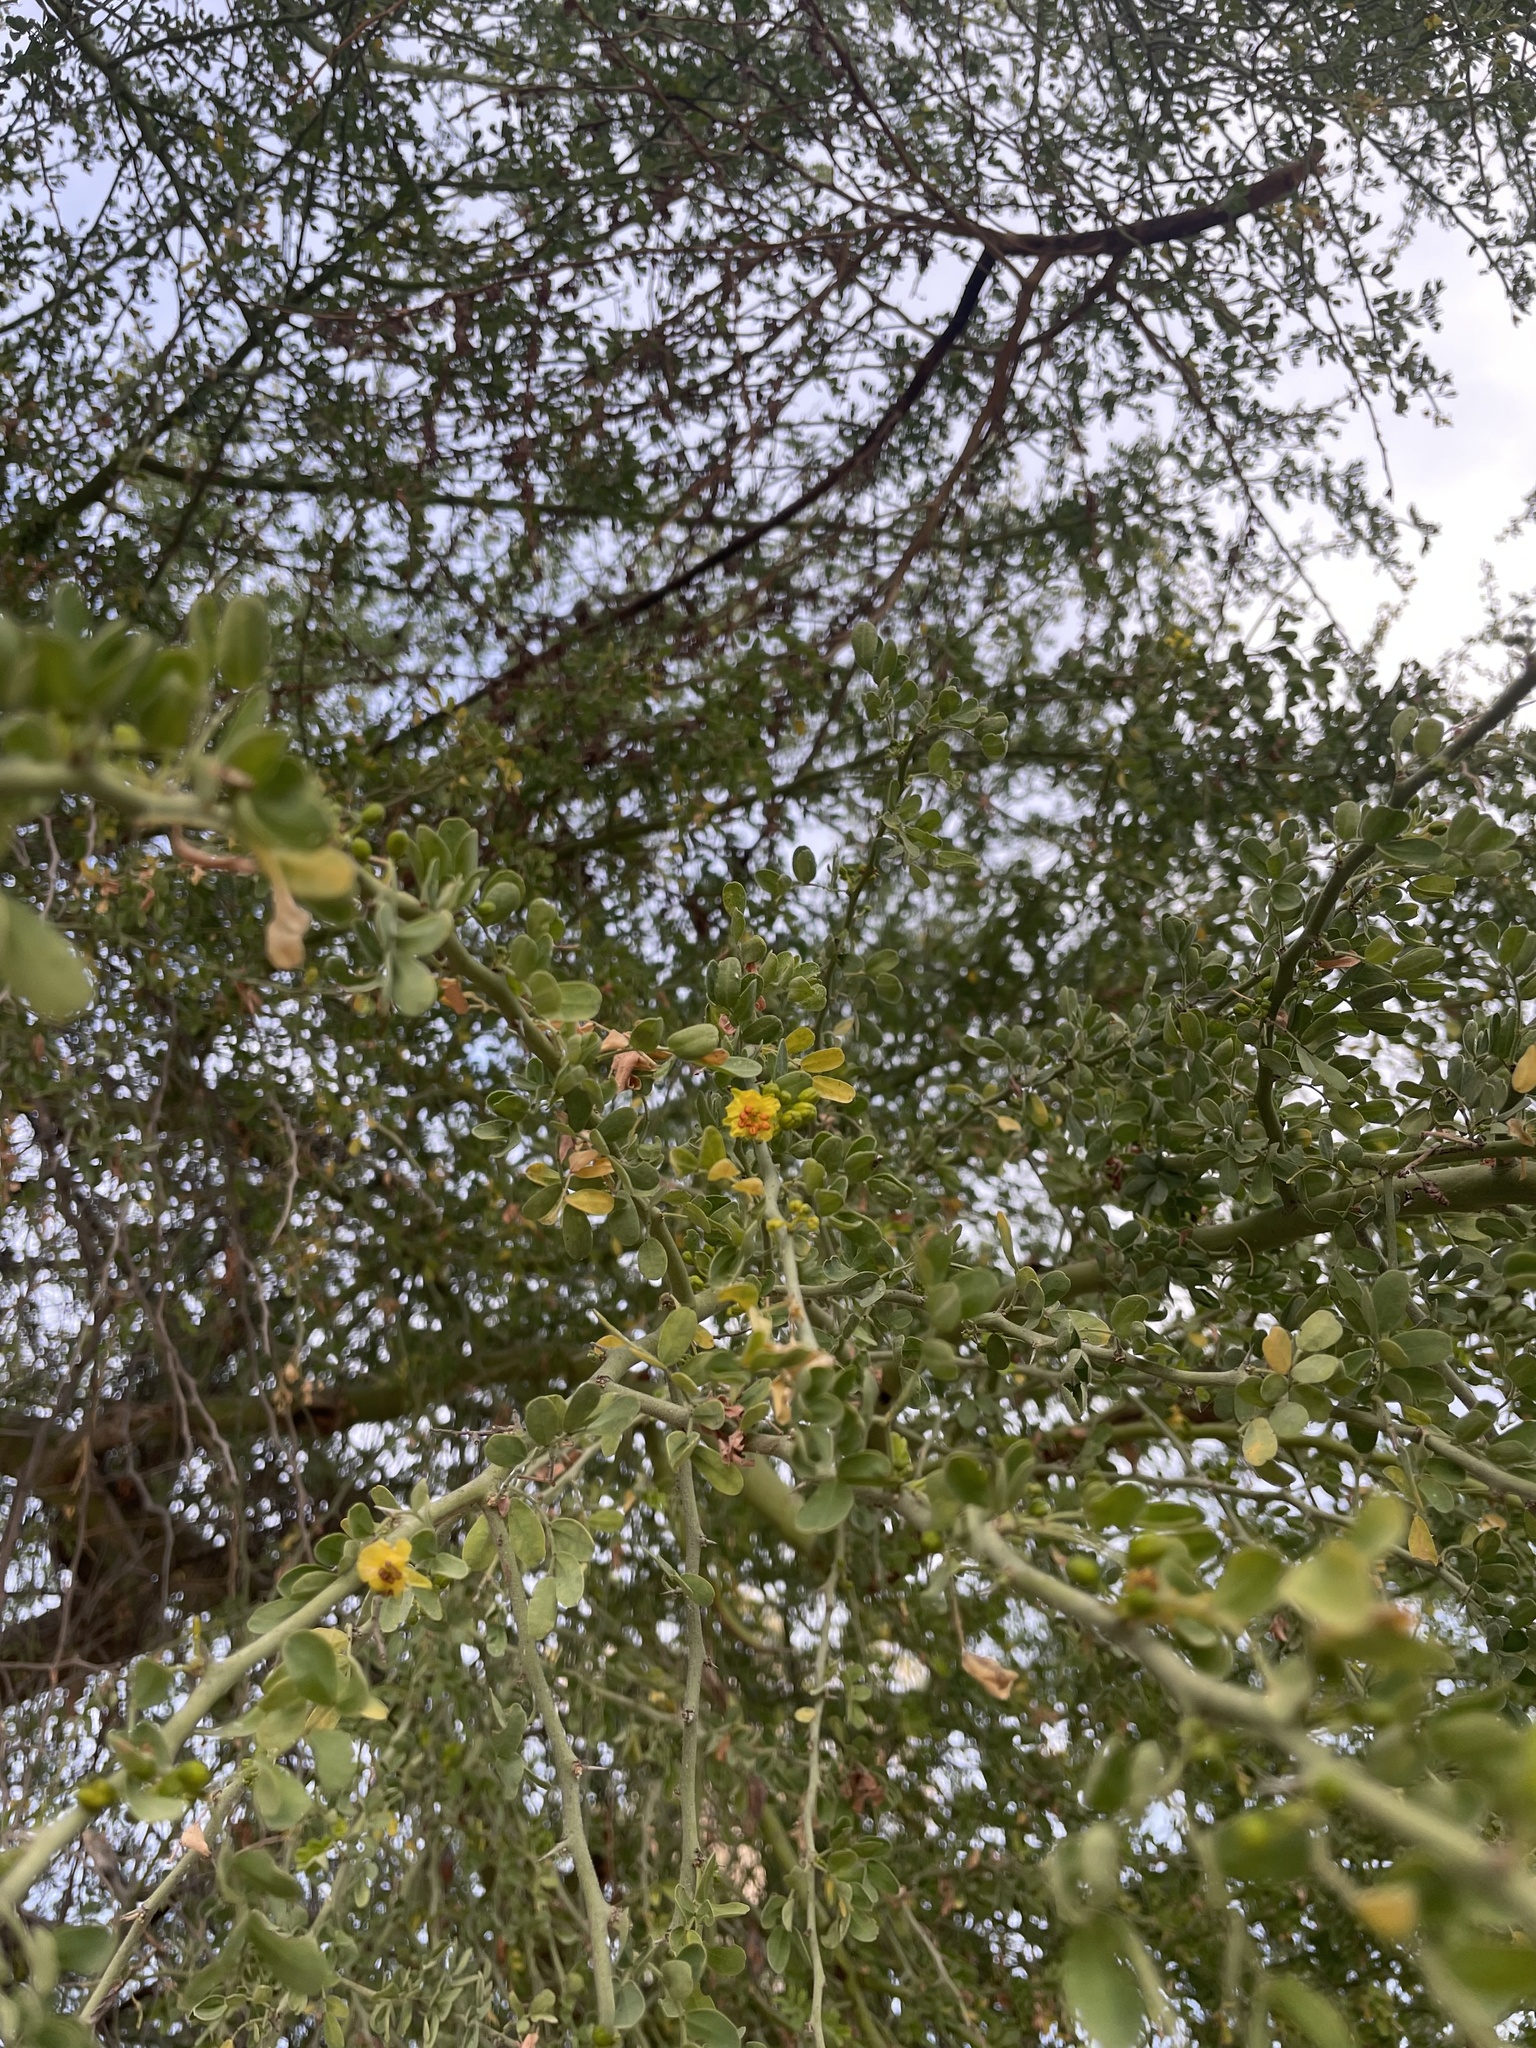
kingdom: Plantae
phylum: Tracheophyta
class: Magnoliopsida
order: Fabales
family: Fabaceae
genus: Parkinsonia
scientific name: Parkinsonia florida
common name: Blue paloverde
